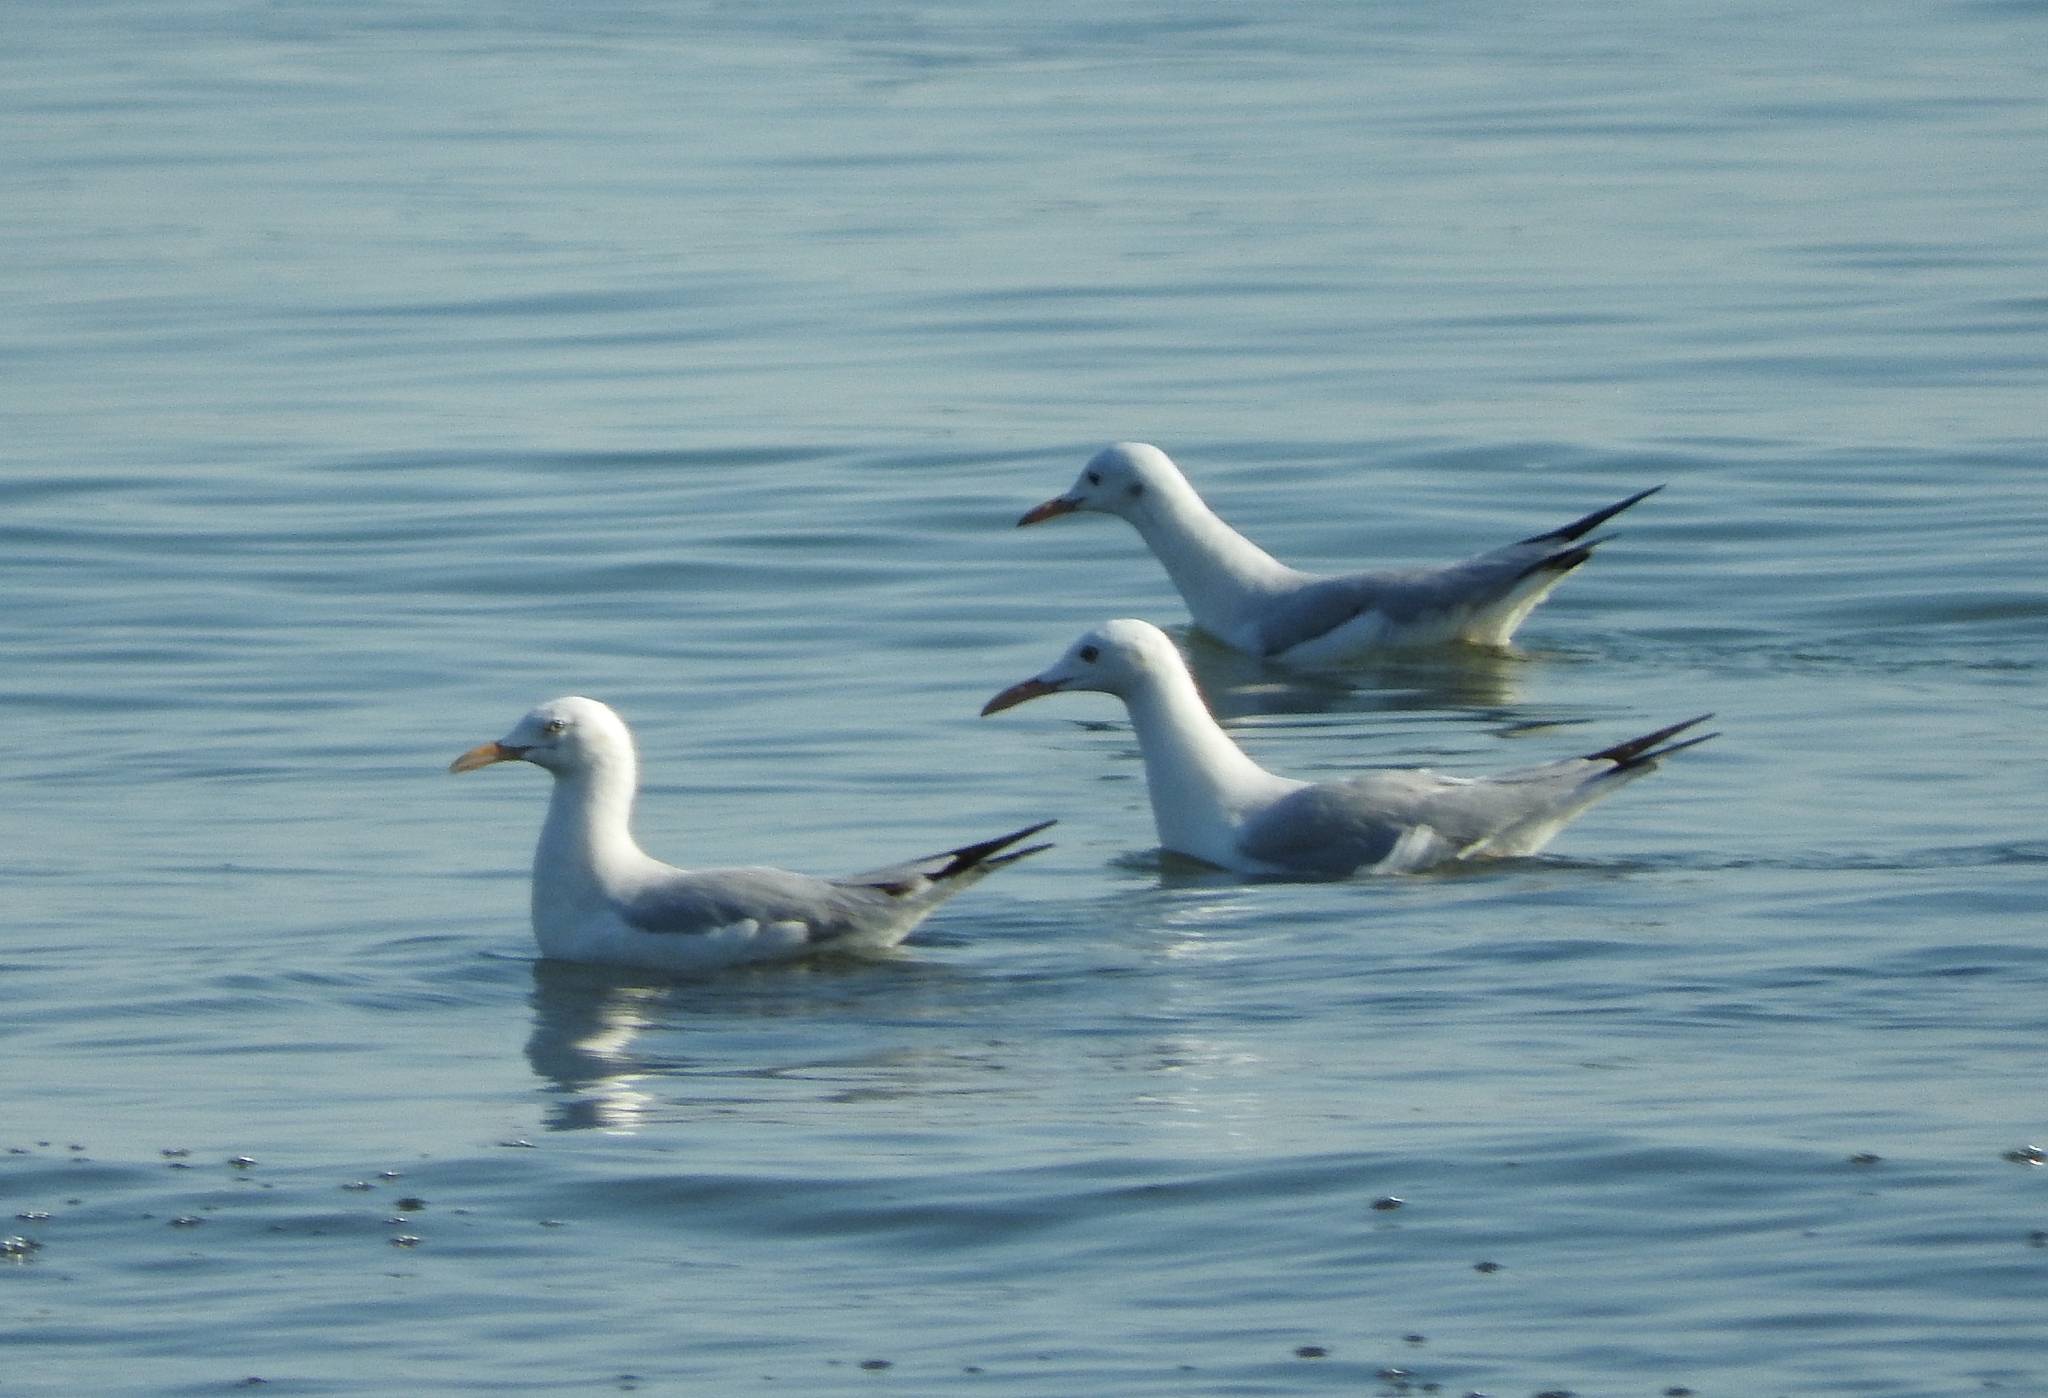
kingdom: Animalia
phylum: Chordata
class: Aves
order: Charadriiformes
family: Laridae
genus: Chroicocephalus
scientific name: Chroicocephalus genei
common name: Slender-billed gull
